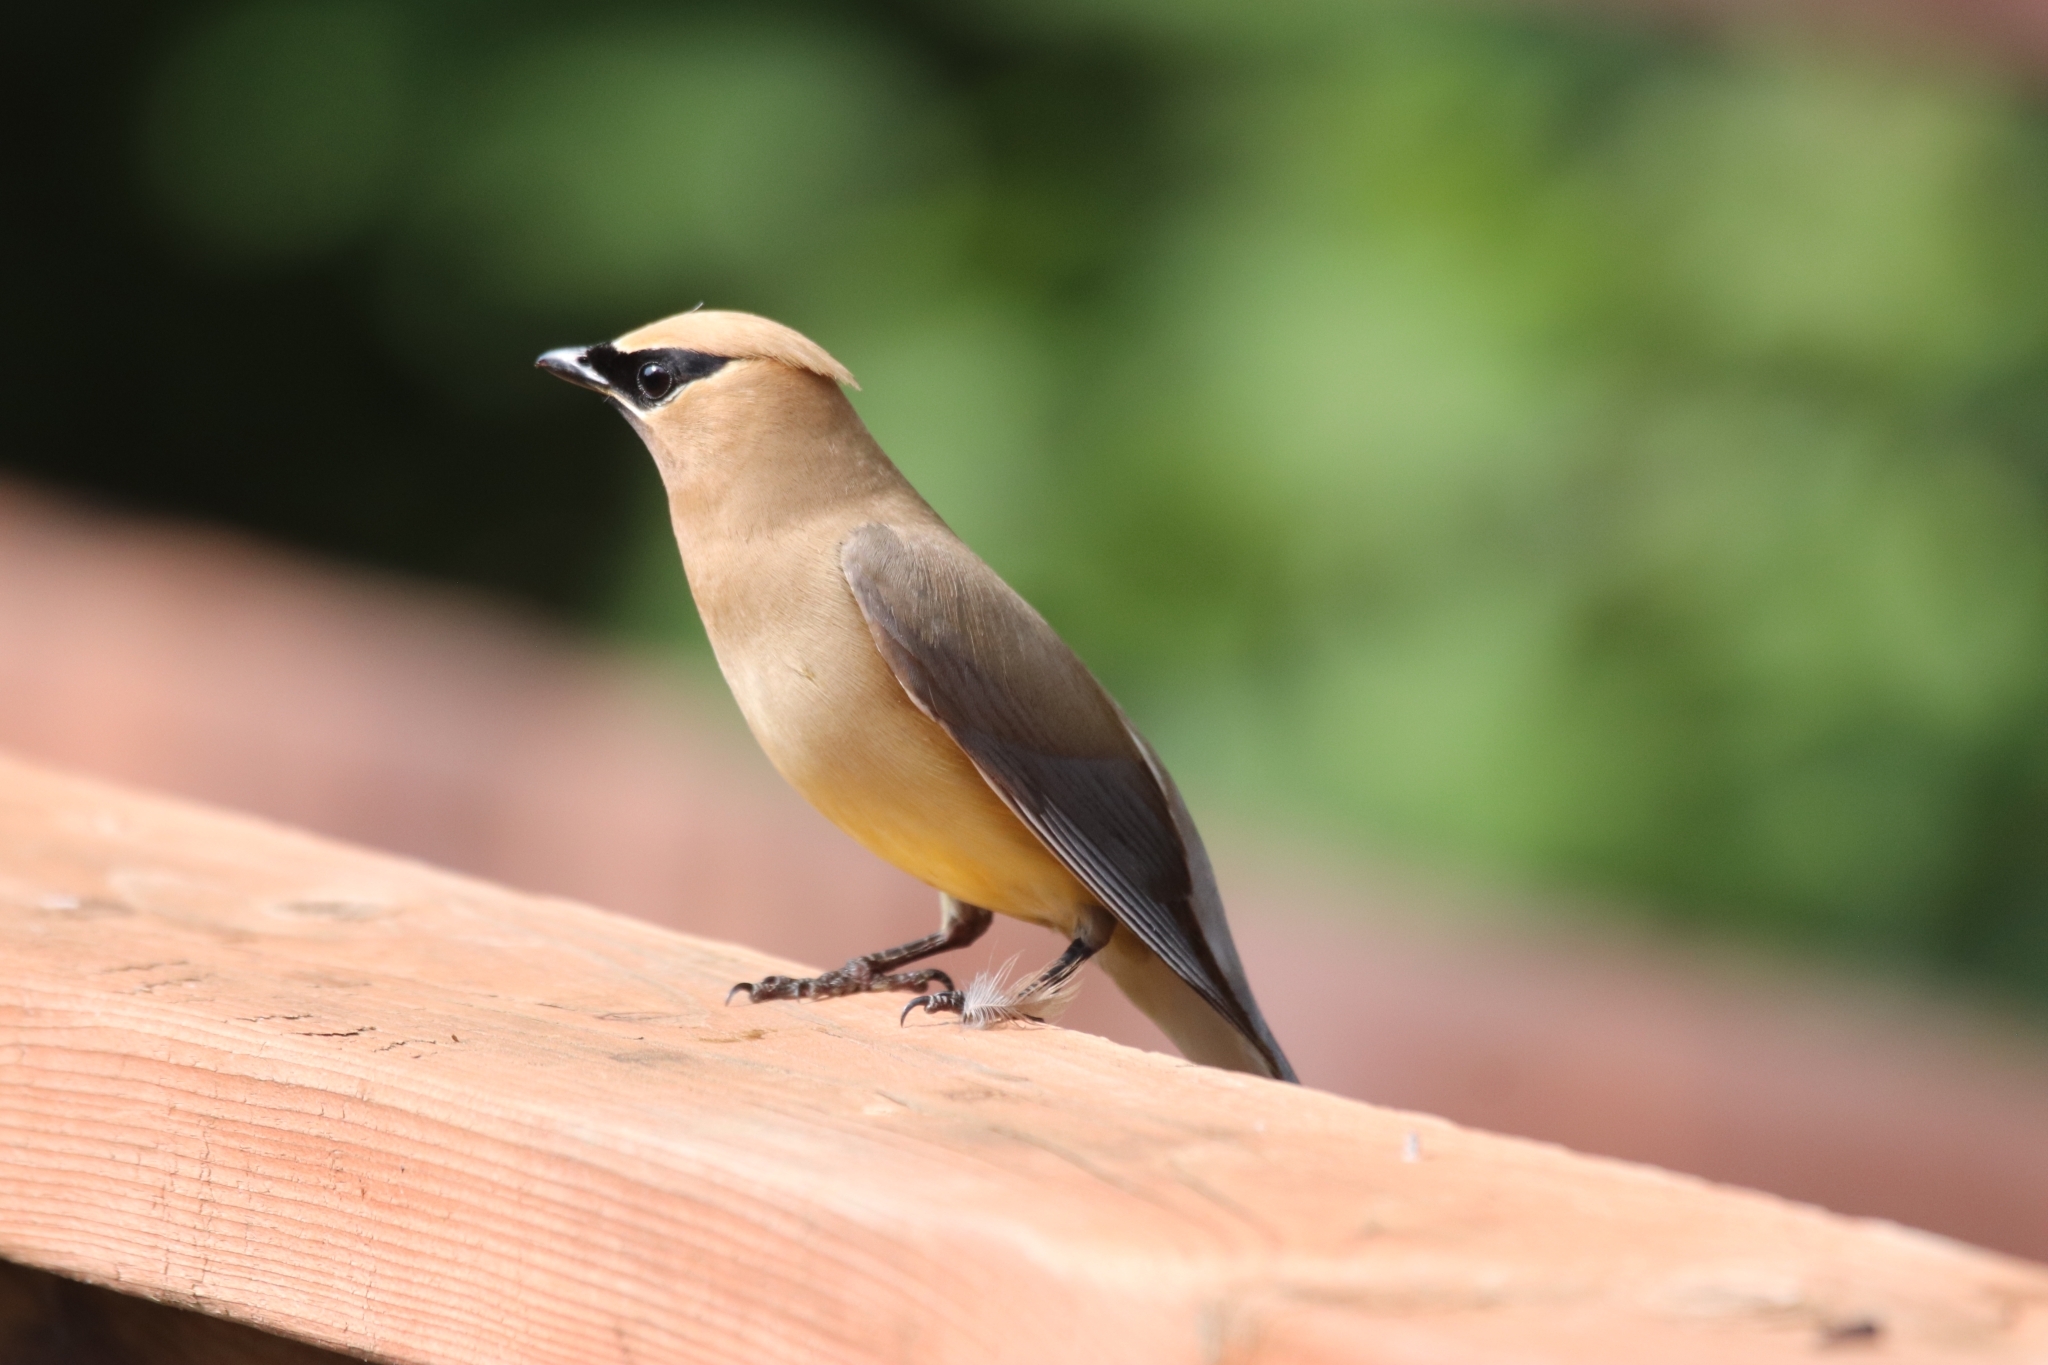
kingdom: Animalia
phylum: Chordata
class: Aves
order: Passeriformes
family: Bombycillidae
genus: Bombycilla
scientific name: Bombycilla cedrorum
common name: Cedar waxwing
